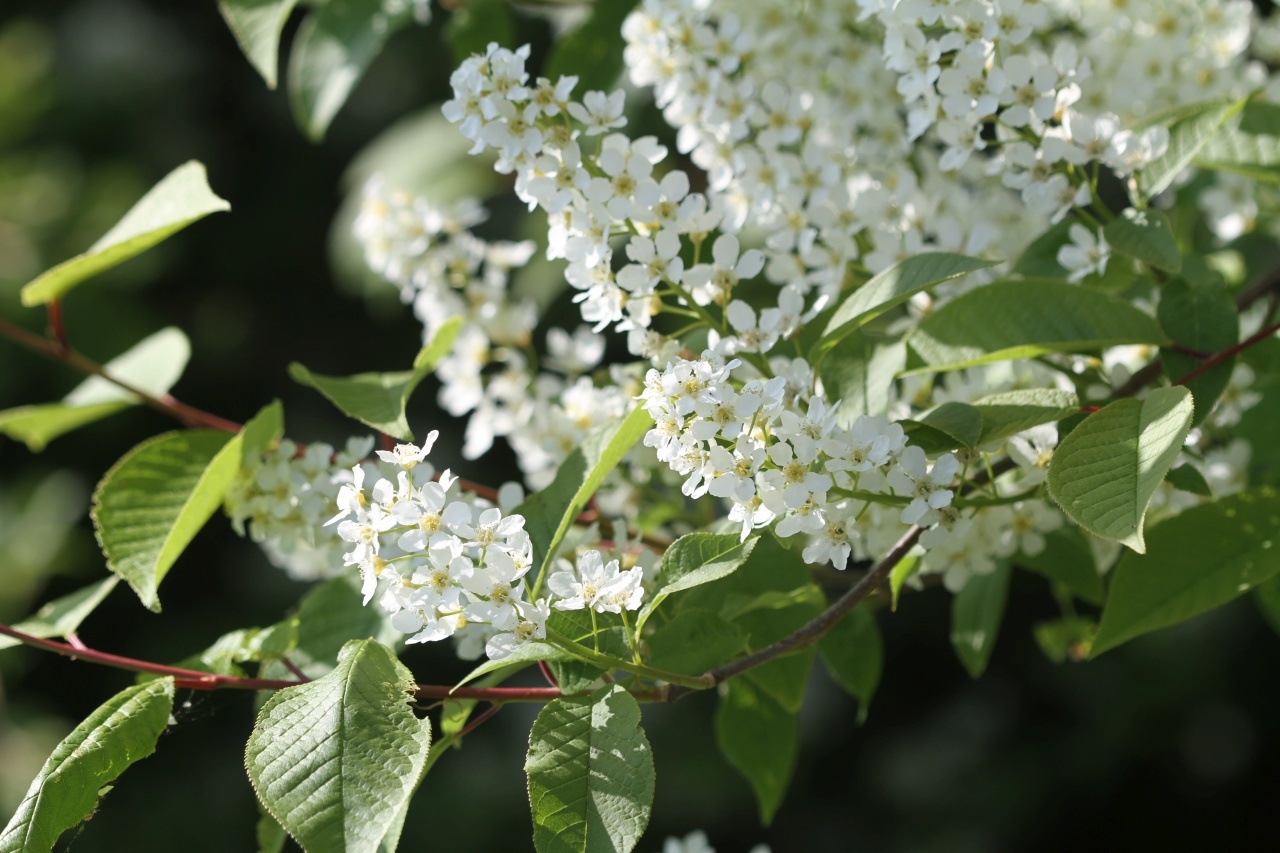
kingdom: Plantae
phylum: Tracheophyta
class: Magnoliopsida
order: Rosales
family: Rosaceae
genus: Prunus
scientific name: Prunus padus
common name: Bird cherry
